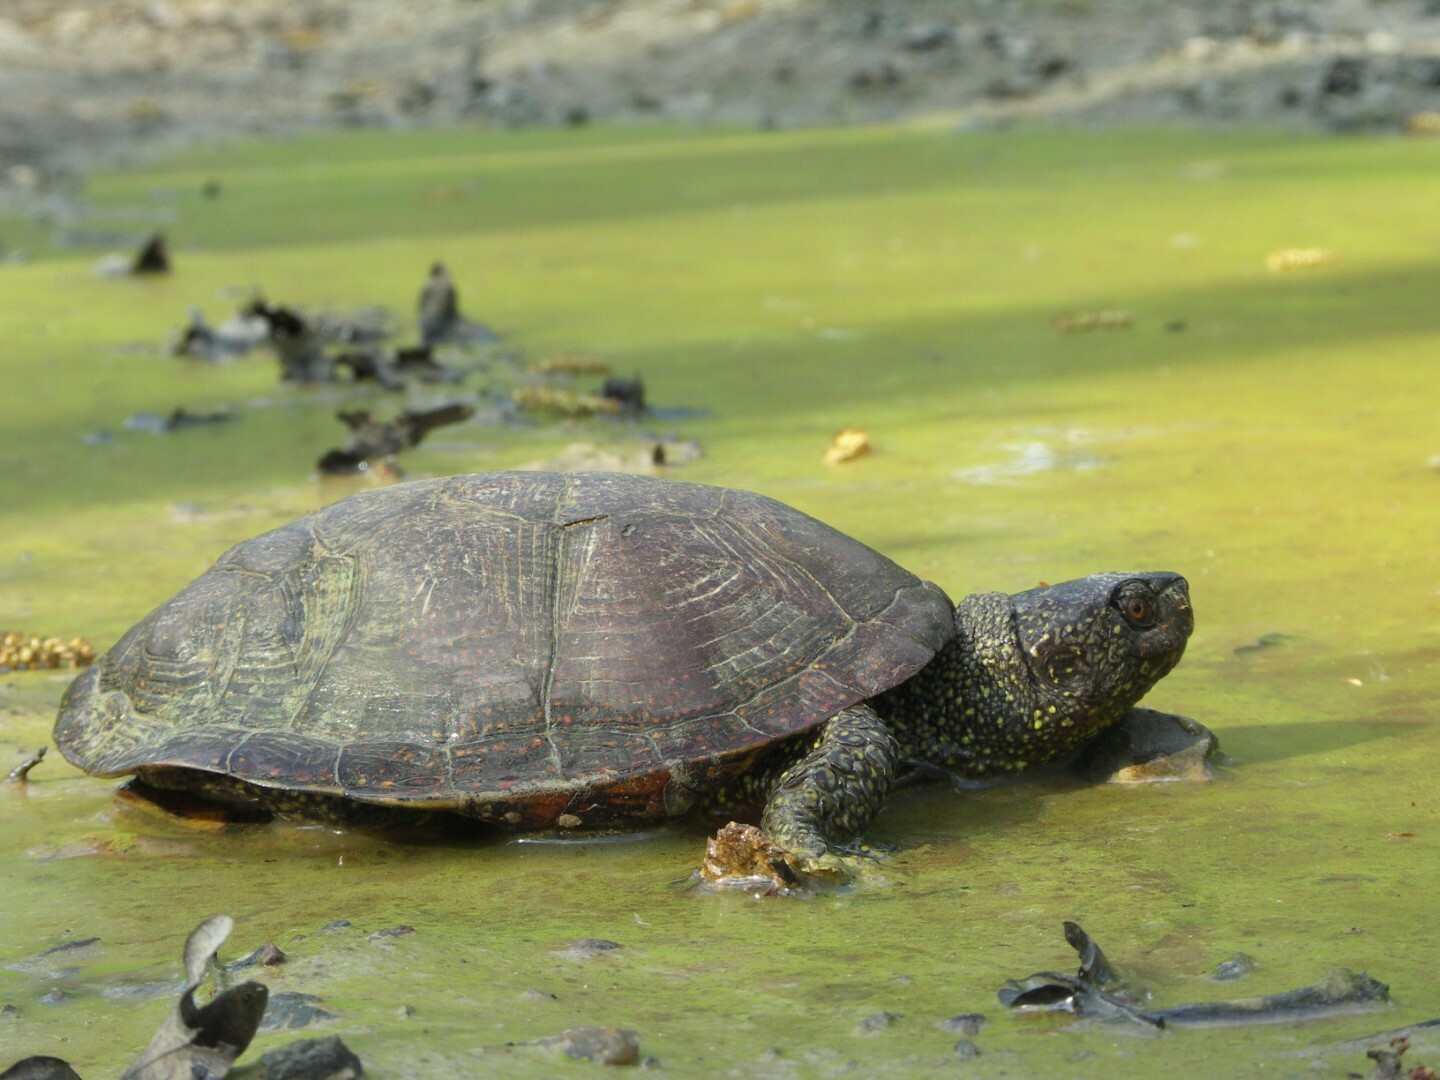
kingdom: Animalia
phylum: Chordata
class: Testudines
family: Emydidae
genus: Emys
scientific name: Emys orbicularis
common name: European pond turtle
